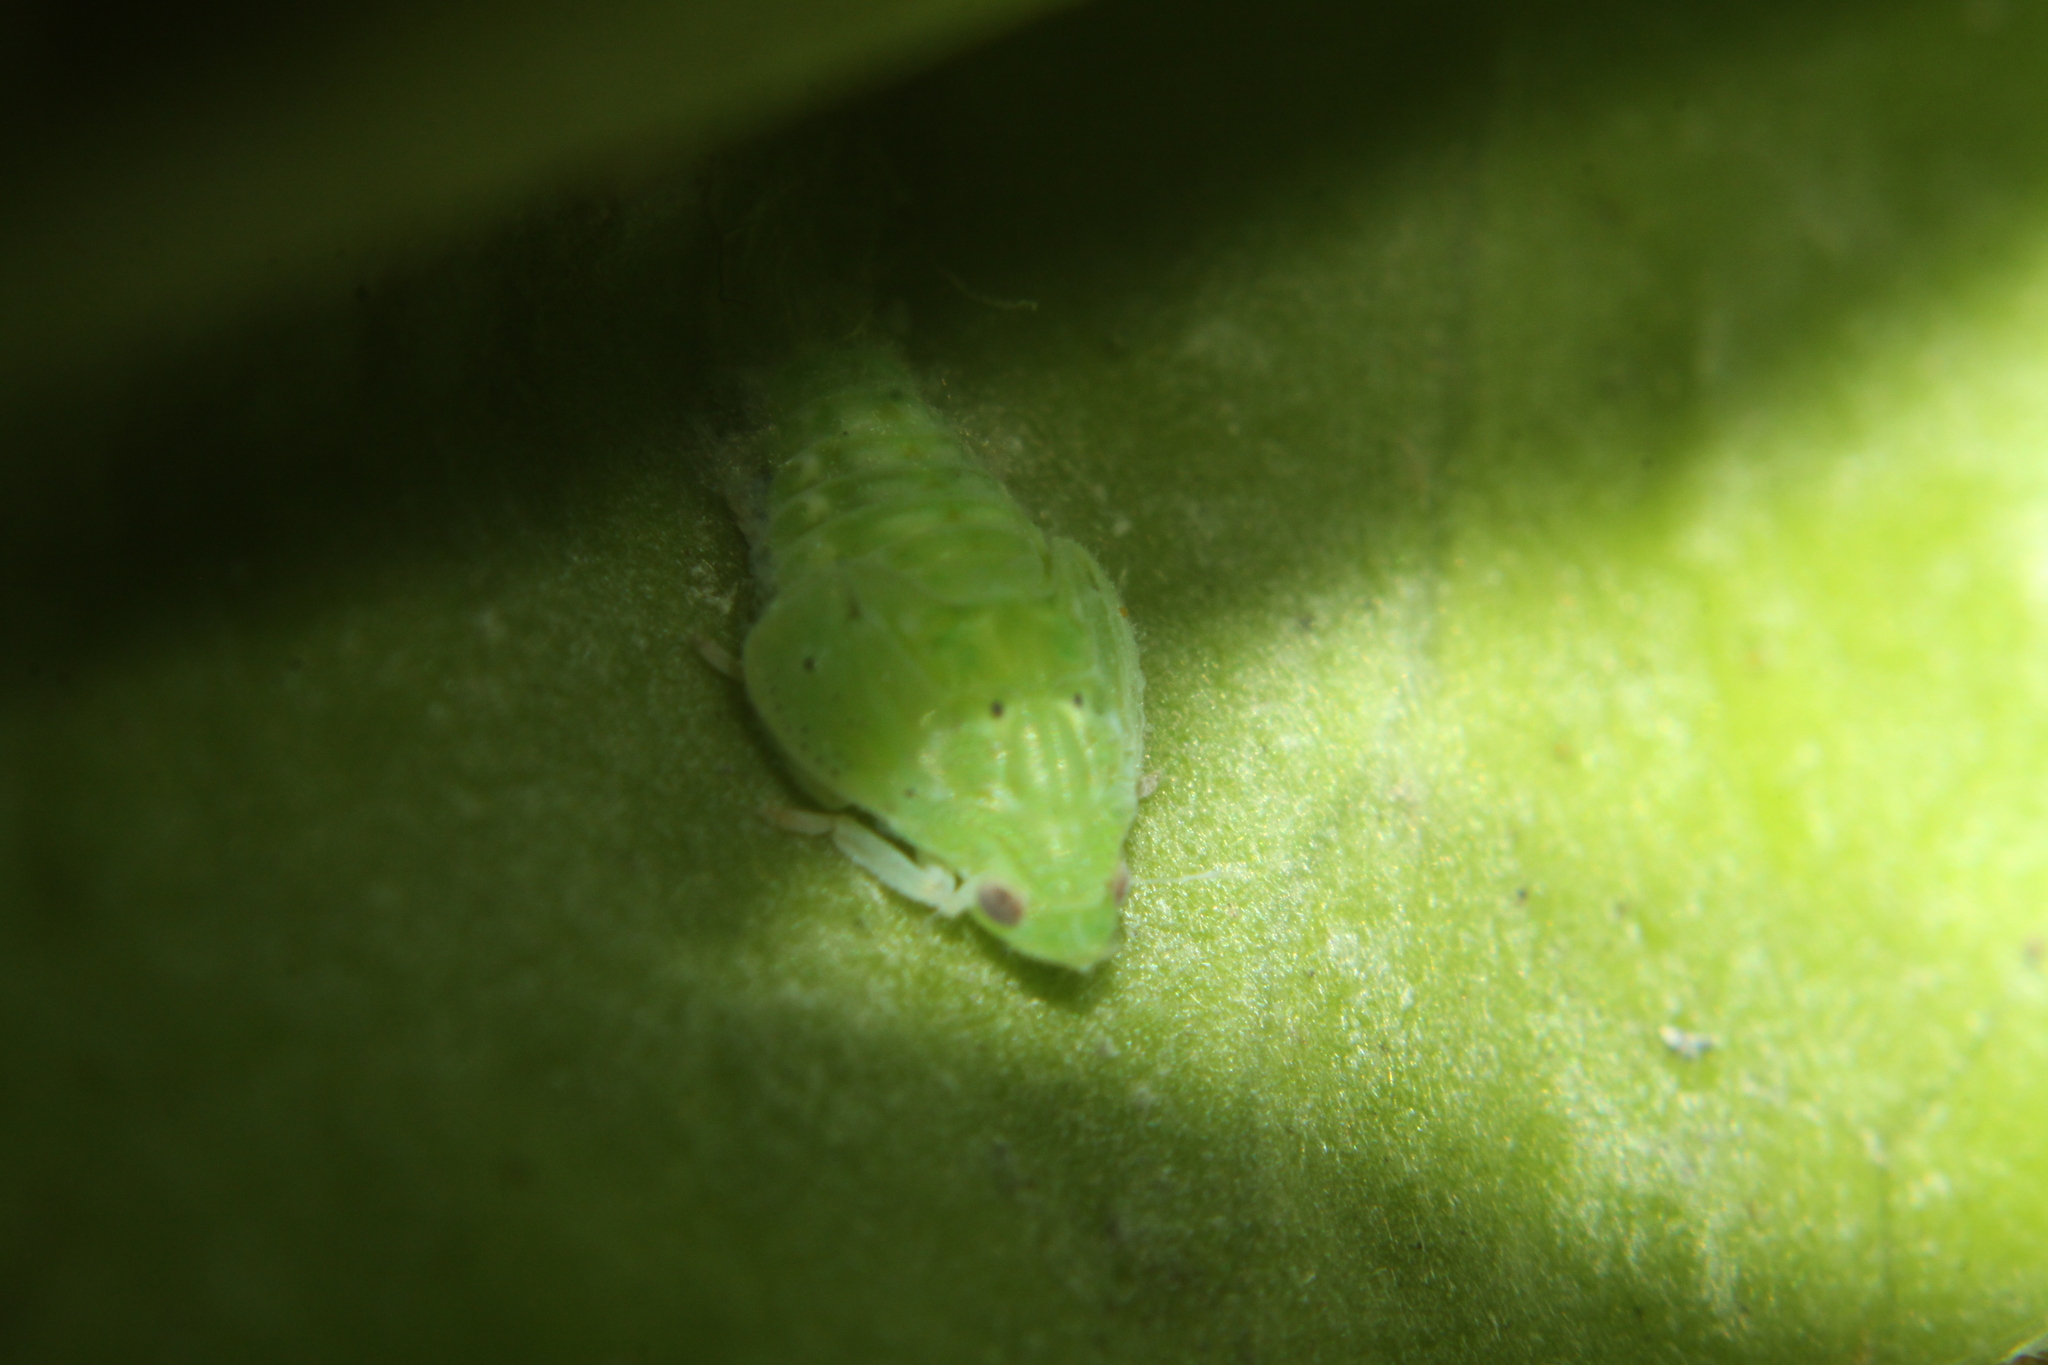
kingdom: Animalia
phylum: Arthropoda
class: Insecta
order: Hemiptera
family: Flatidae
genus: Siphanta
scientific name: Siphanta acuta
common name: Torpedo bug
